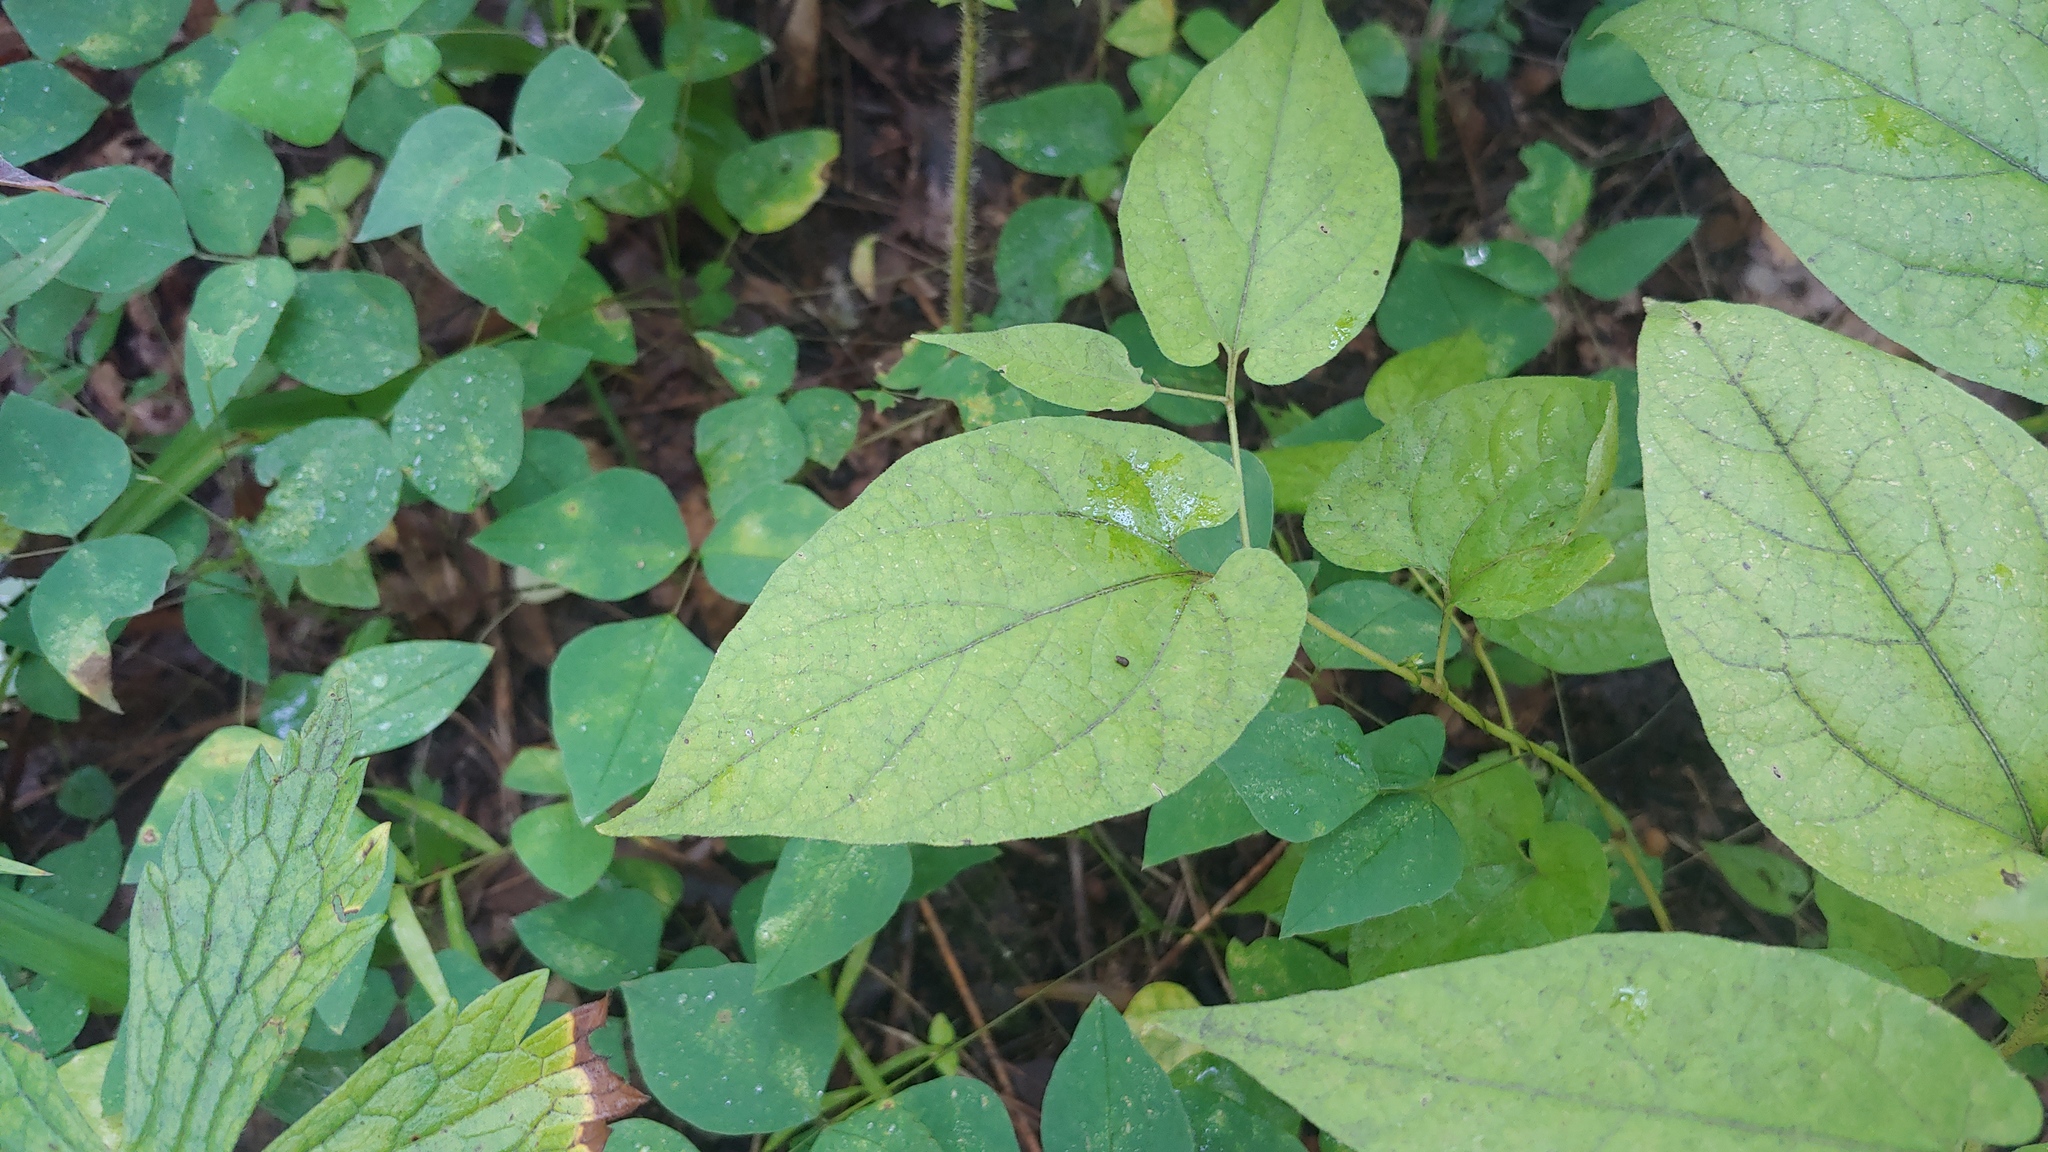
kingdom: Plantae
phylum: Tracheophyta
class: Magnoliopsida
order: Piperales
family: Aristolochiaceae
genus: Endodeca
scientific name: Endodeca serpentaria
